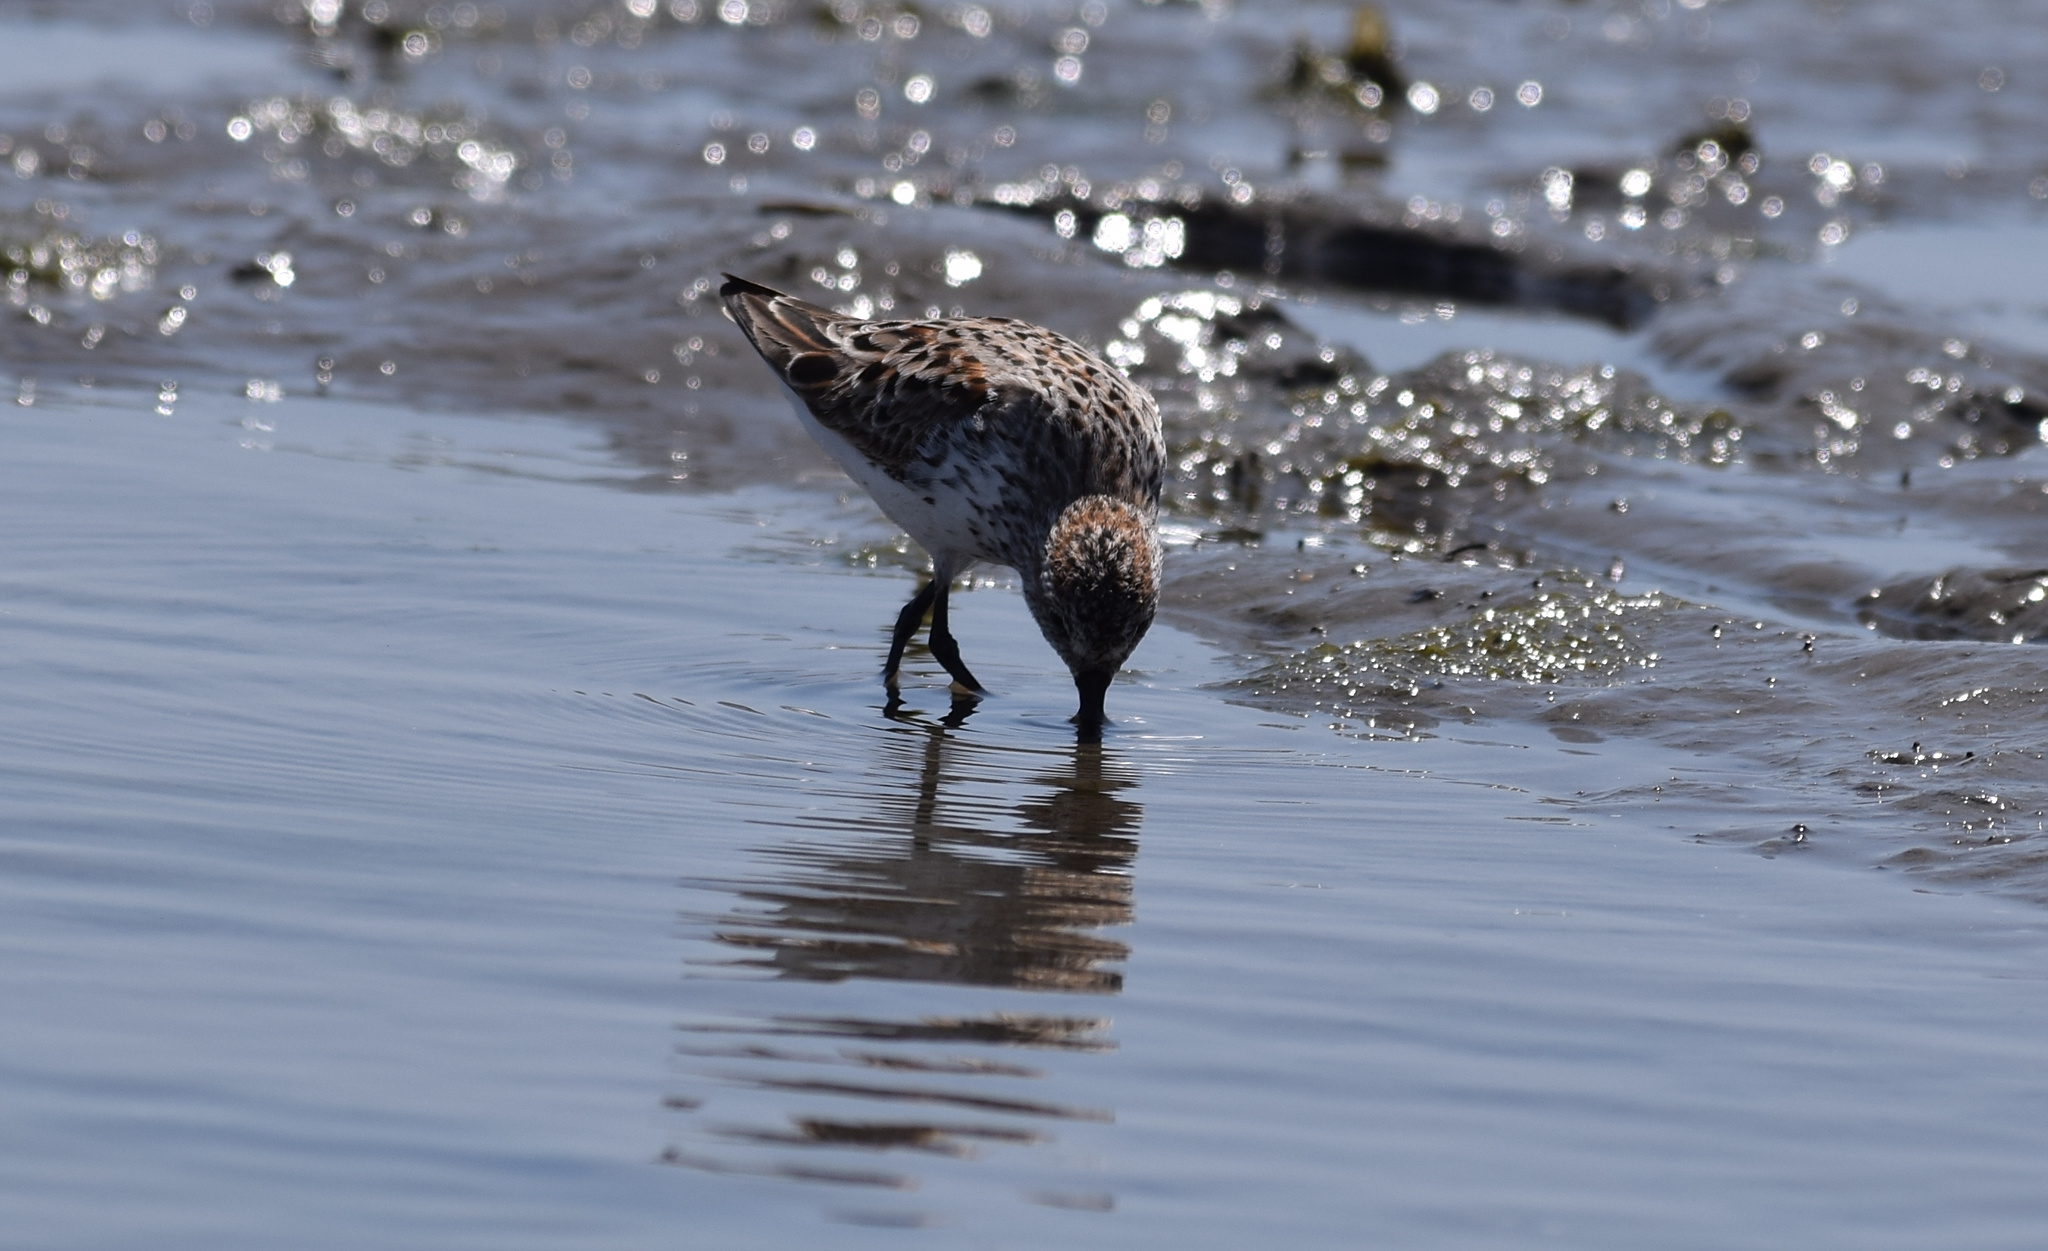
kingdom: Animalia
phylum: Chordata
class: Aves
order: Charadriiformes
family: Scolopacidae
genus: Calidris
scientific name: Calidris mauri
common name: Western sandpiper
